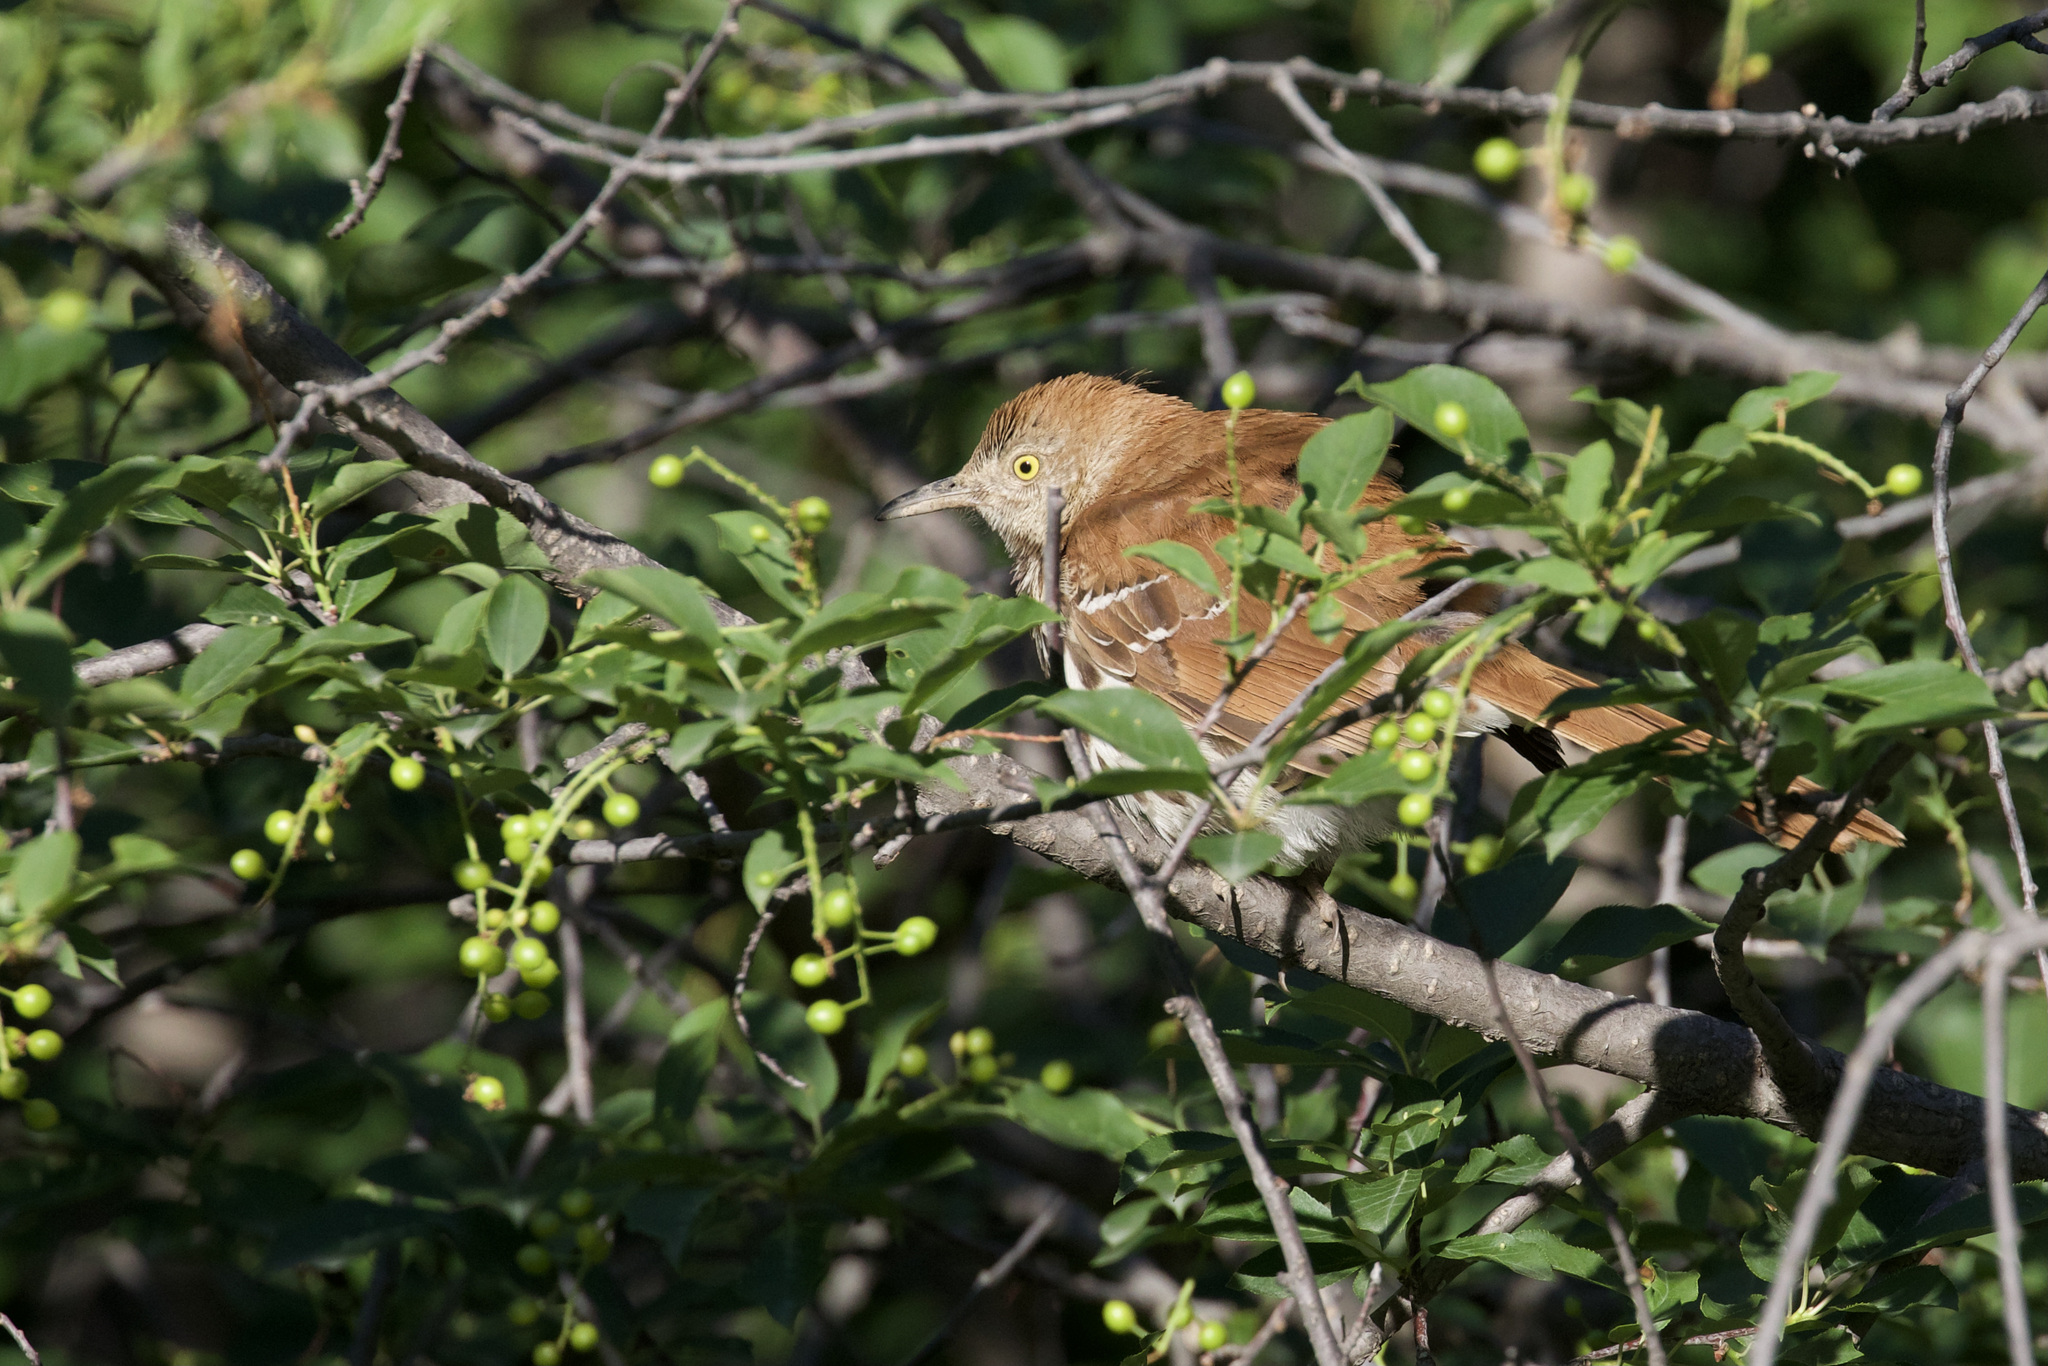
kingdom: Animalia
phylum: Chordata
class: Aves
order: Passeriformes
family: Mimidae
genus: Toxostoma
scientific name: Toxostoma rufum
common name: Brown thrasher
